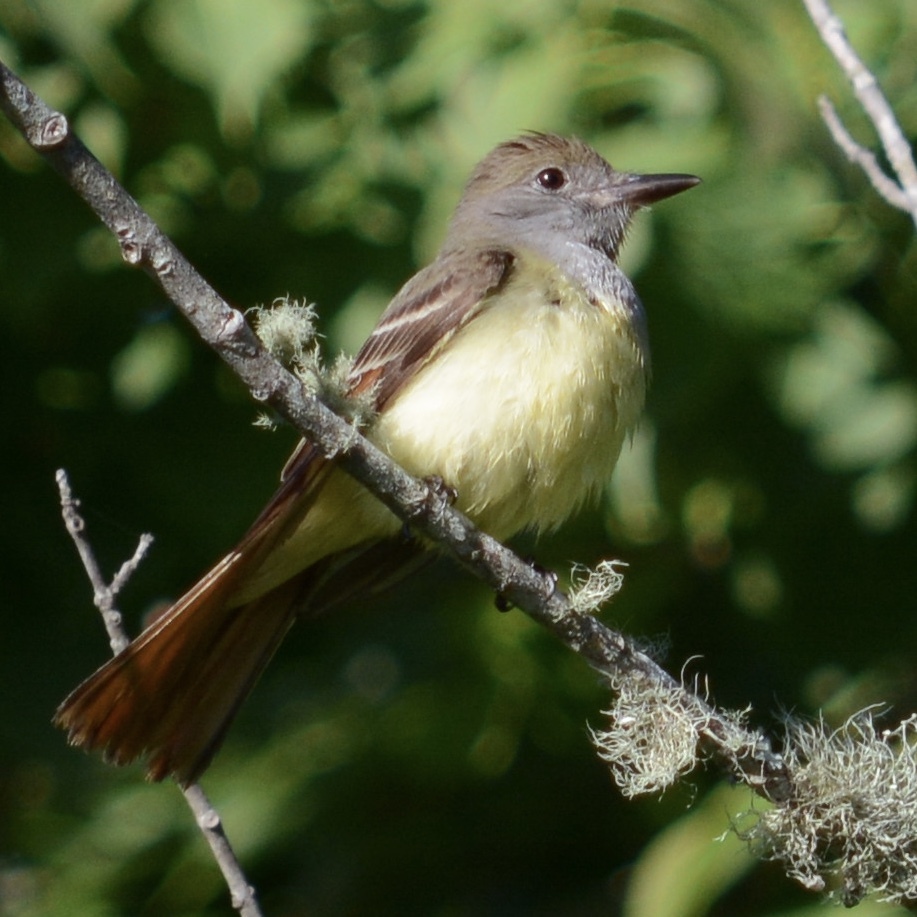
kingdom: Animalia
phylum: Chordata
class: Aves
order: Passeriformes
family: Tyrannidae
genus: Myiarchus
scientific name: Myiarchus crinitus
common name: Great crested flycatcher
